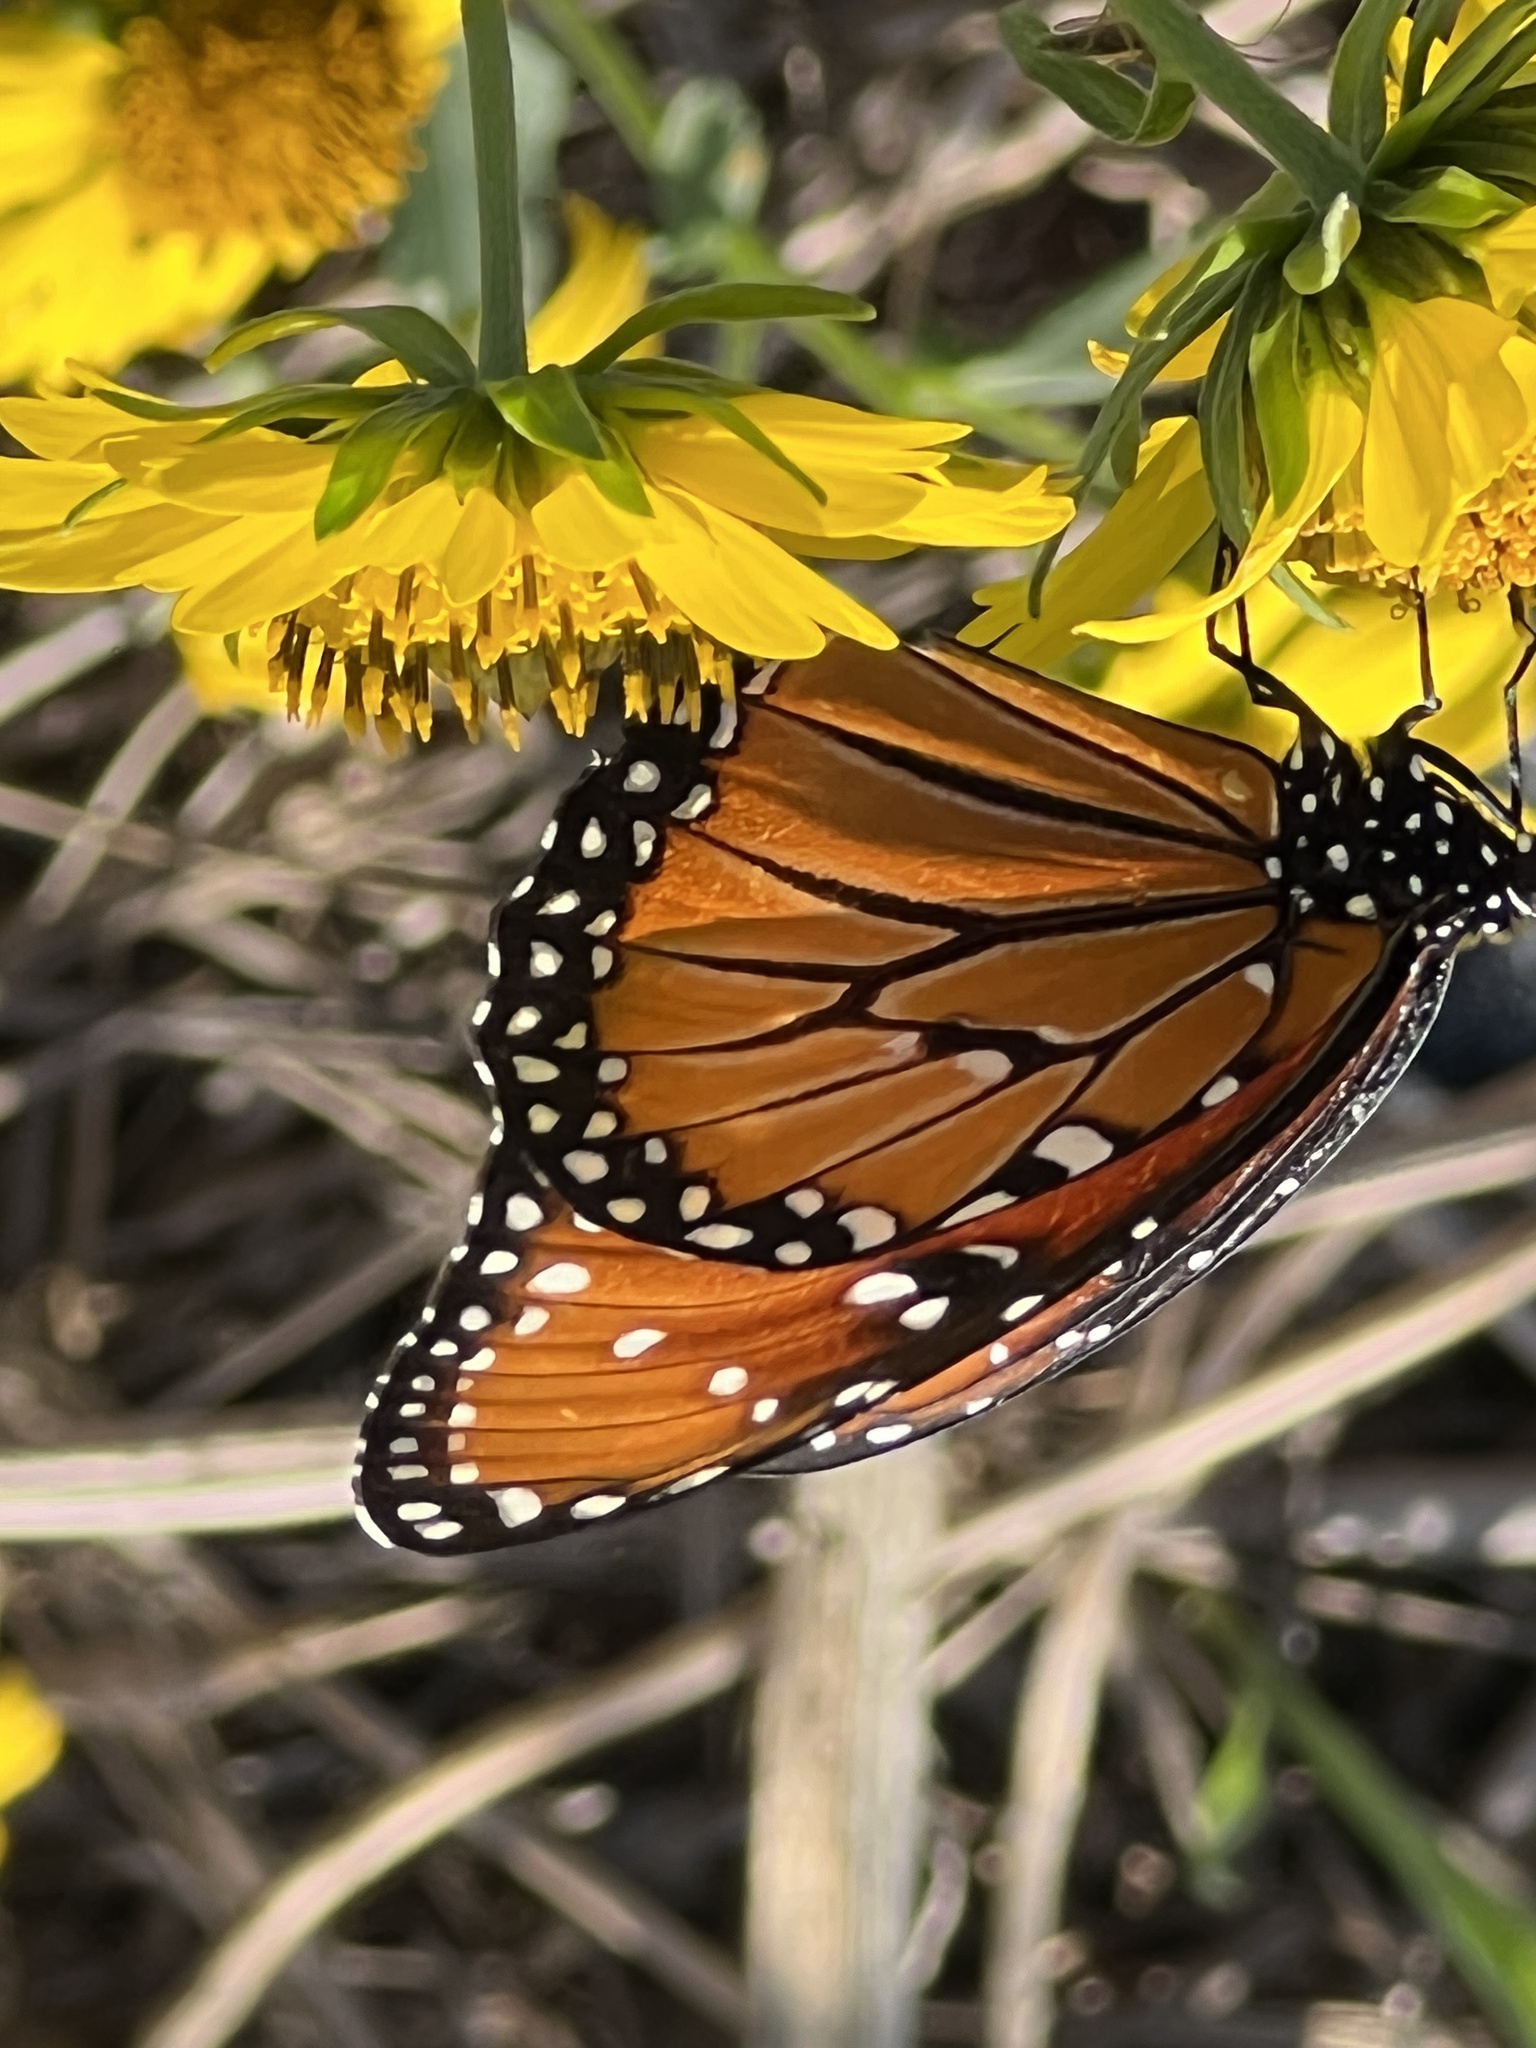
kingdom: Animalia
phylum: Arthropoda
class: Insecta
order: Lepidoptera
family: Nymphalidae
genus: Danaus
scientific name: Danaus gilippus
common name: Queen
